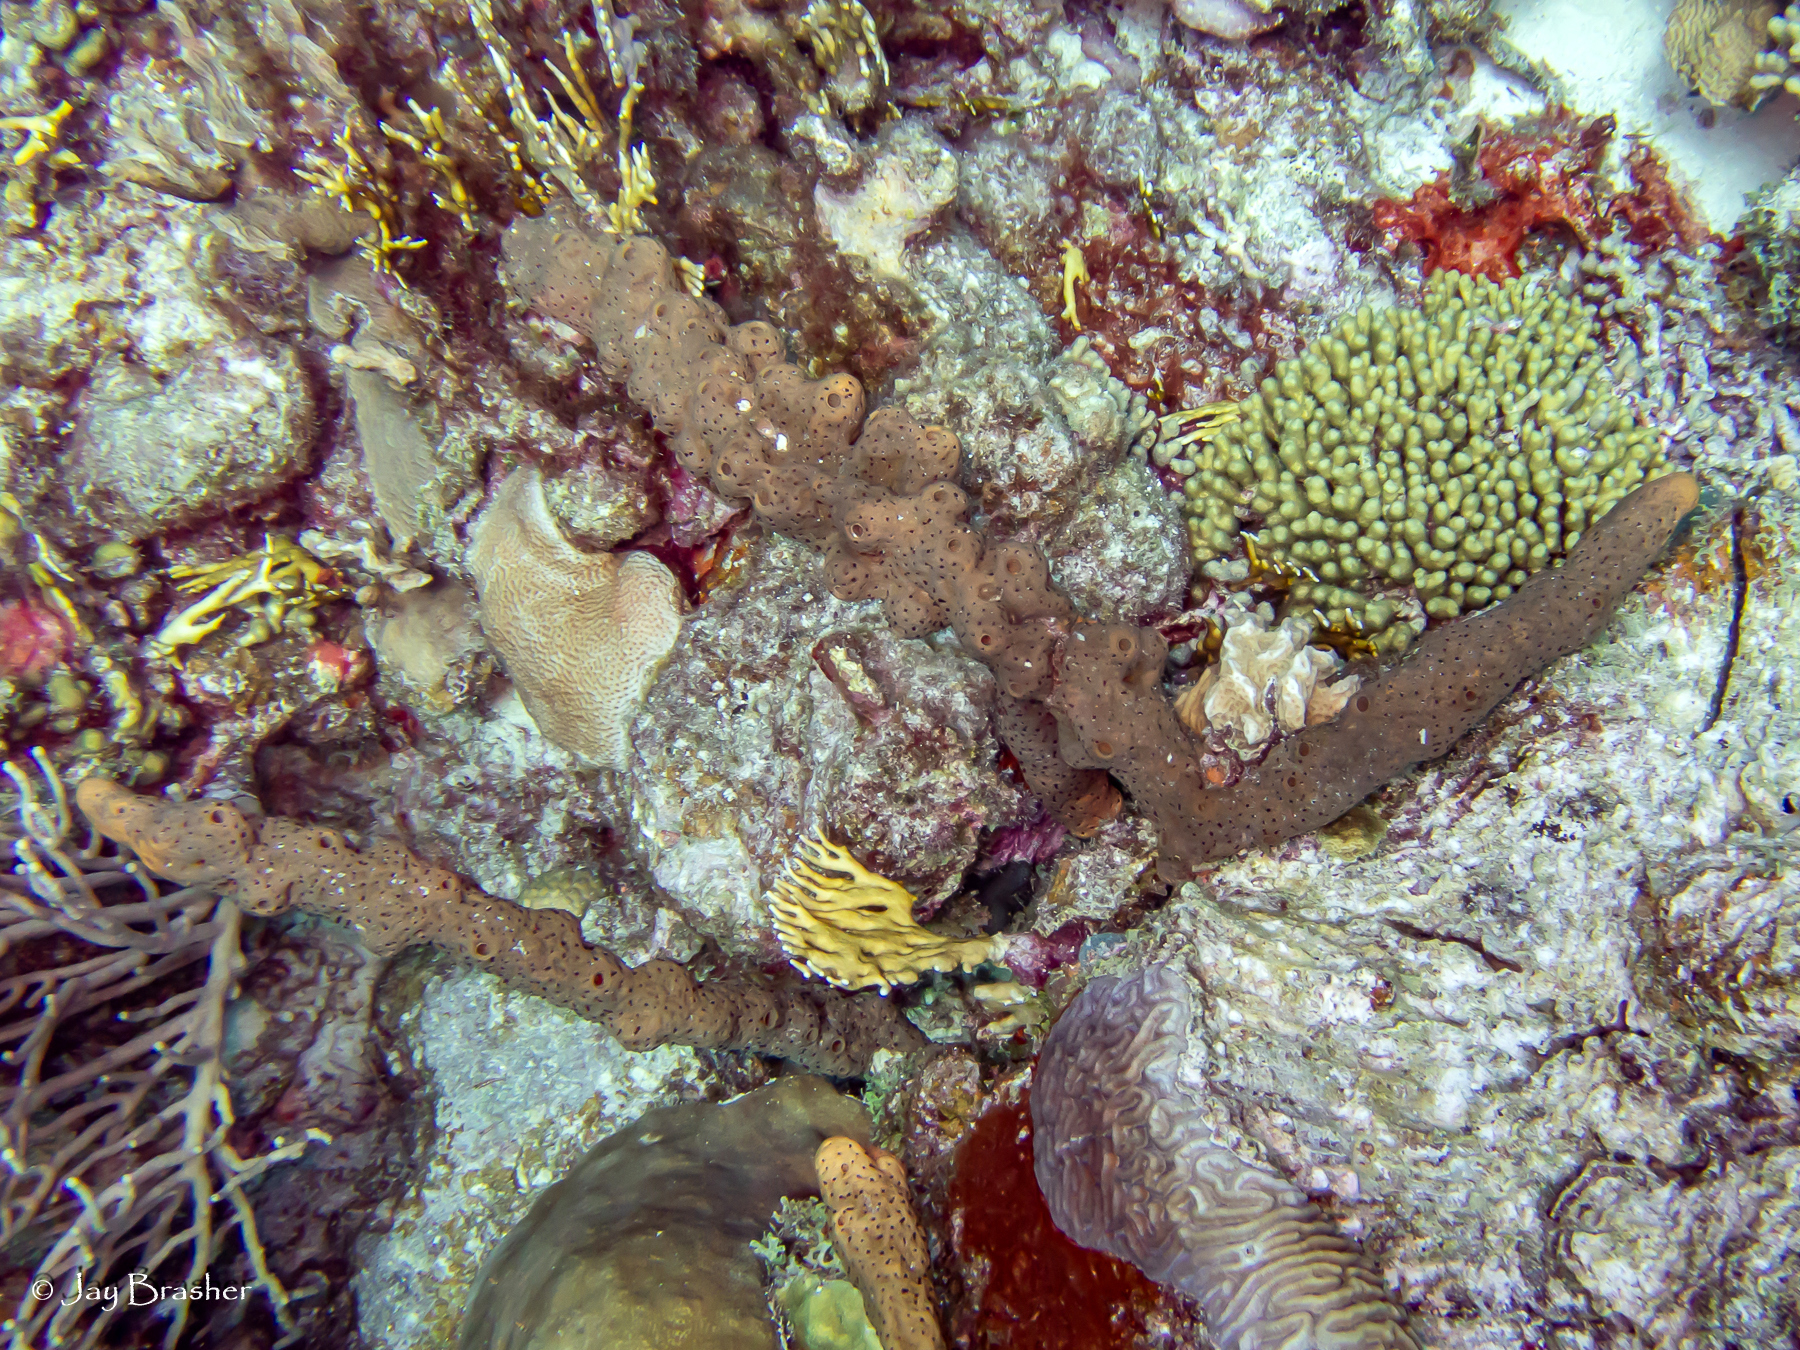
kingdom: Animalia
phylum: Porifera
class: Demospongiae
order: Agelasida
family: Agelasidae
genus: Agelas
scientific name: Agelas conifera
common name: Brown tube sponge
